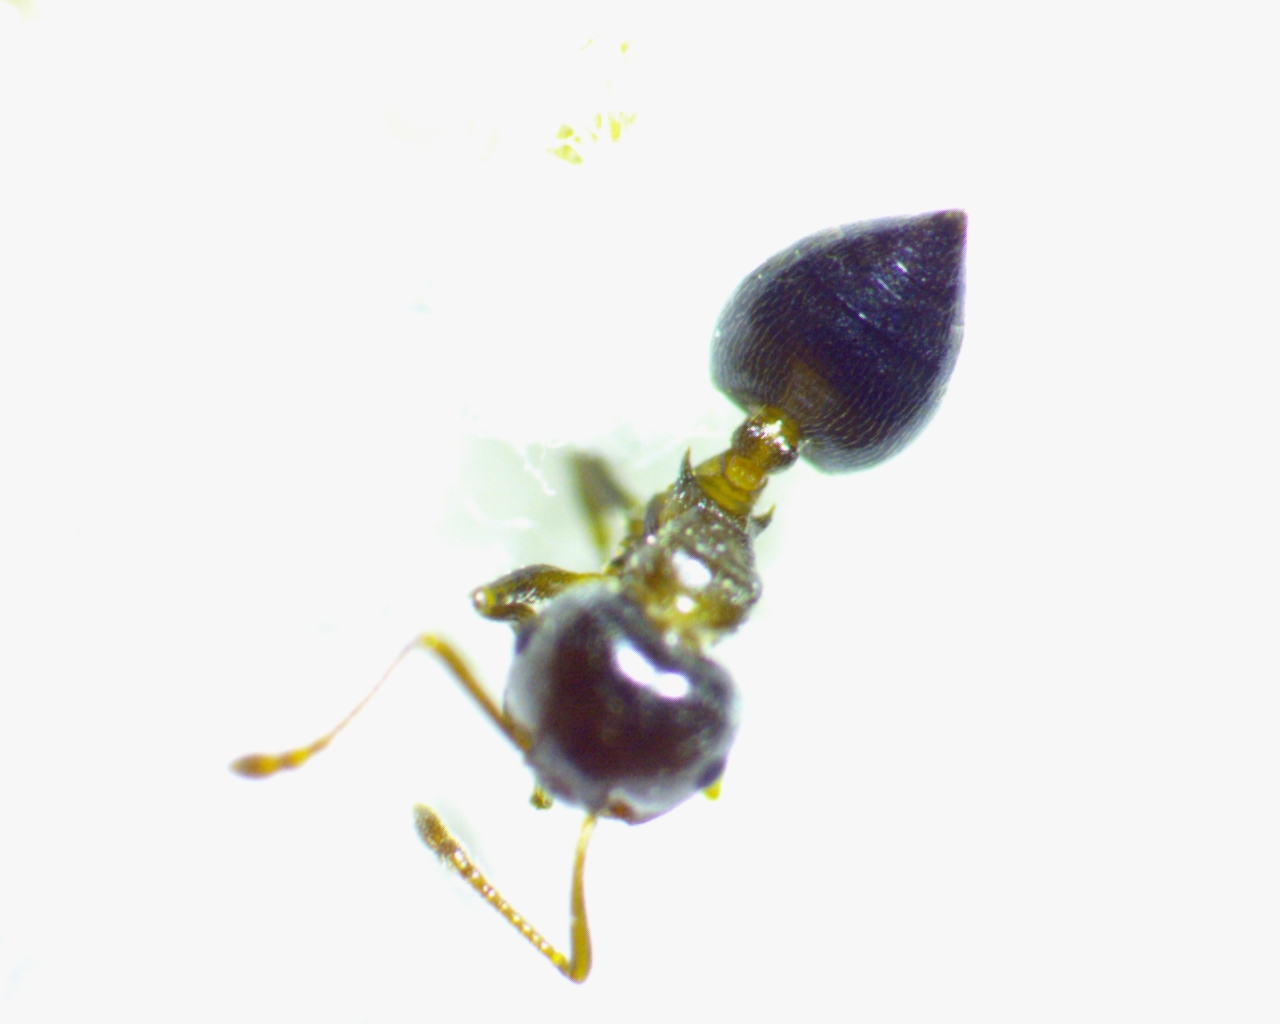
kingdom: Animalia
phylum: Arthropoda
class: Insecta
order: Hymenoptera
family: Formicidae
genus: Crematogaster
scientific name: Crematogaster ashmeadi
